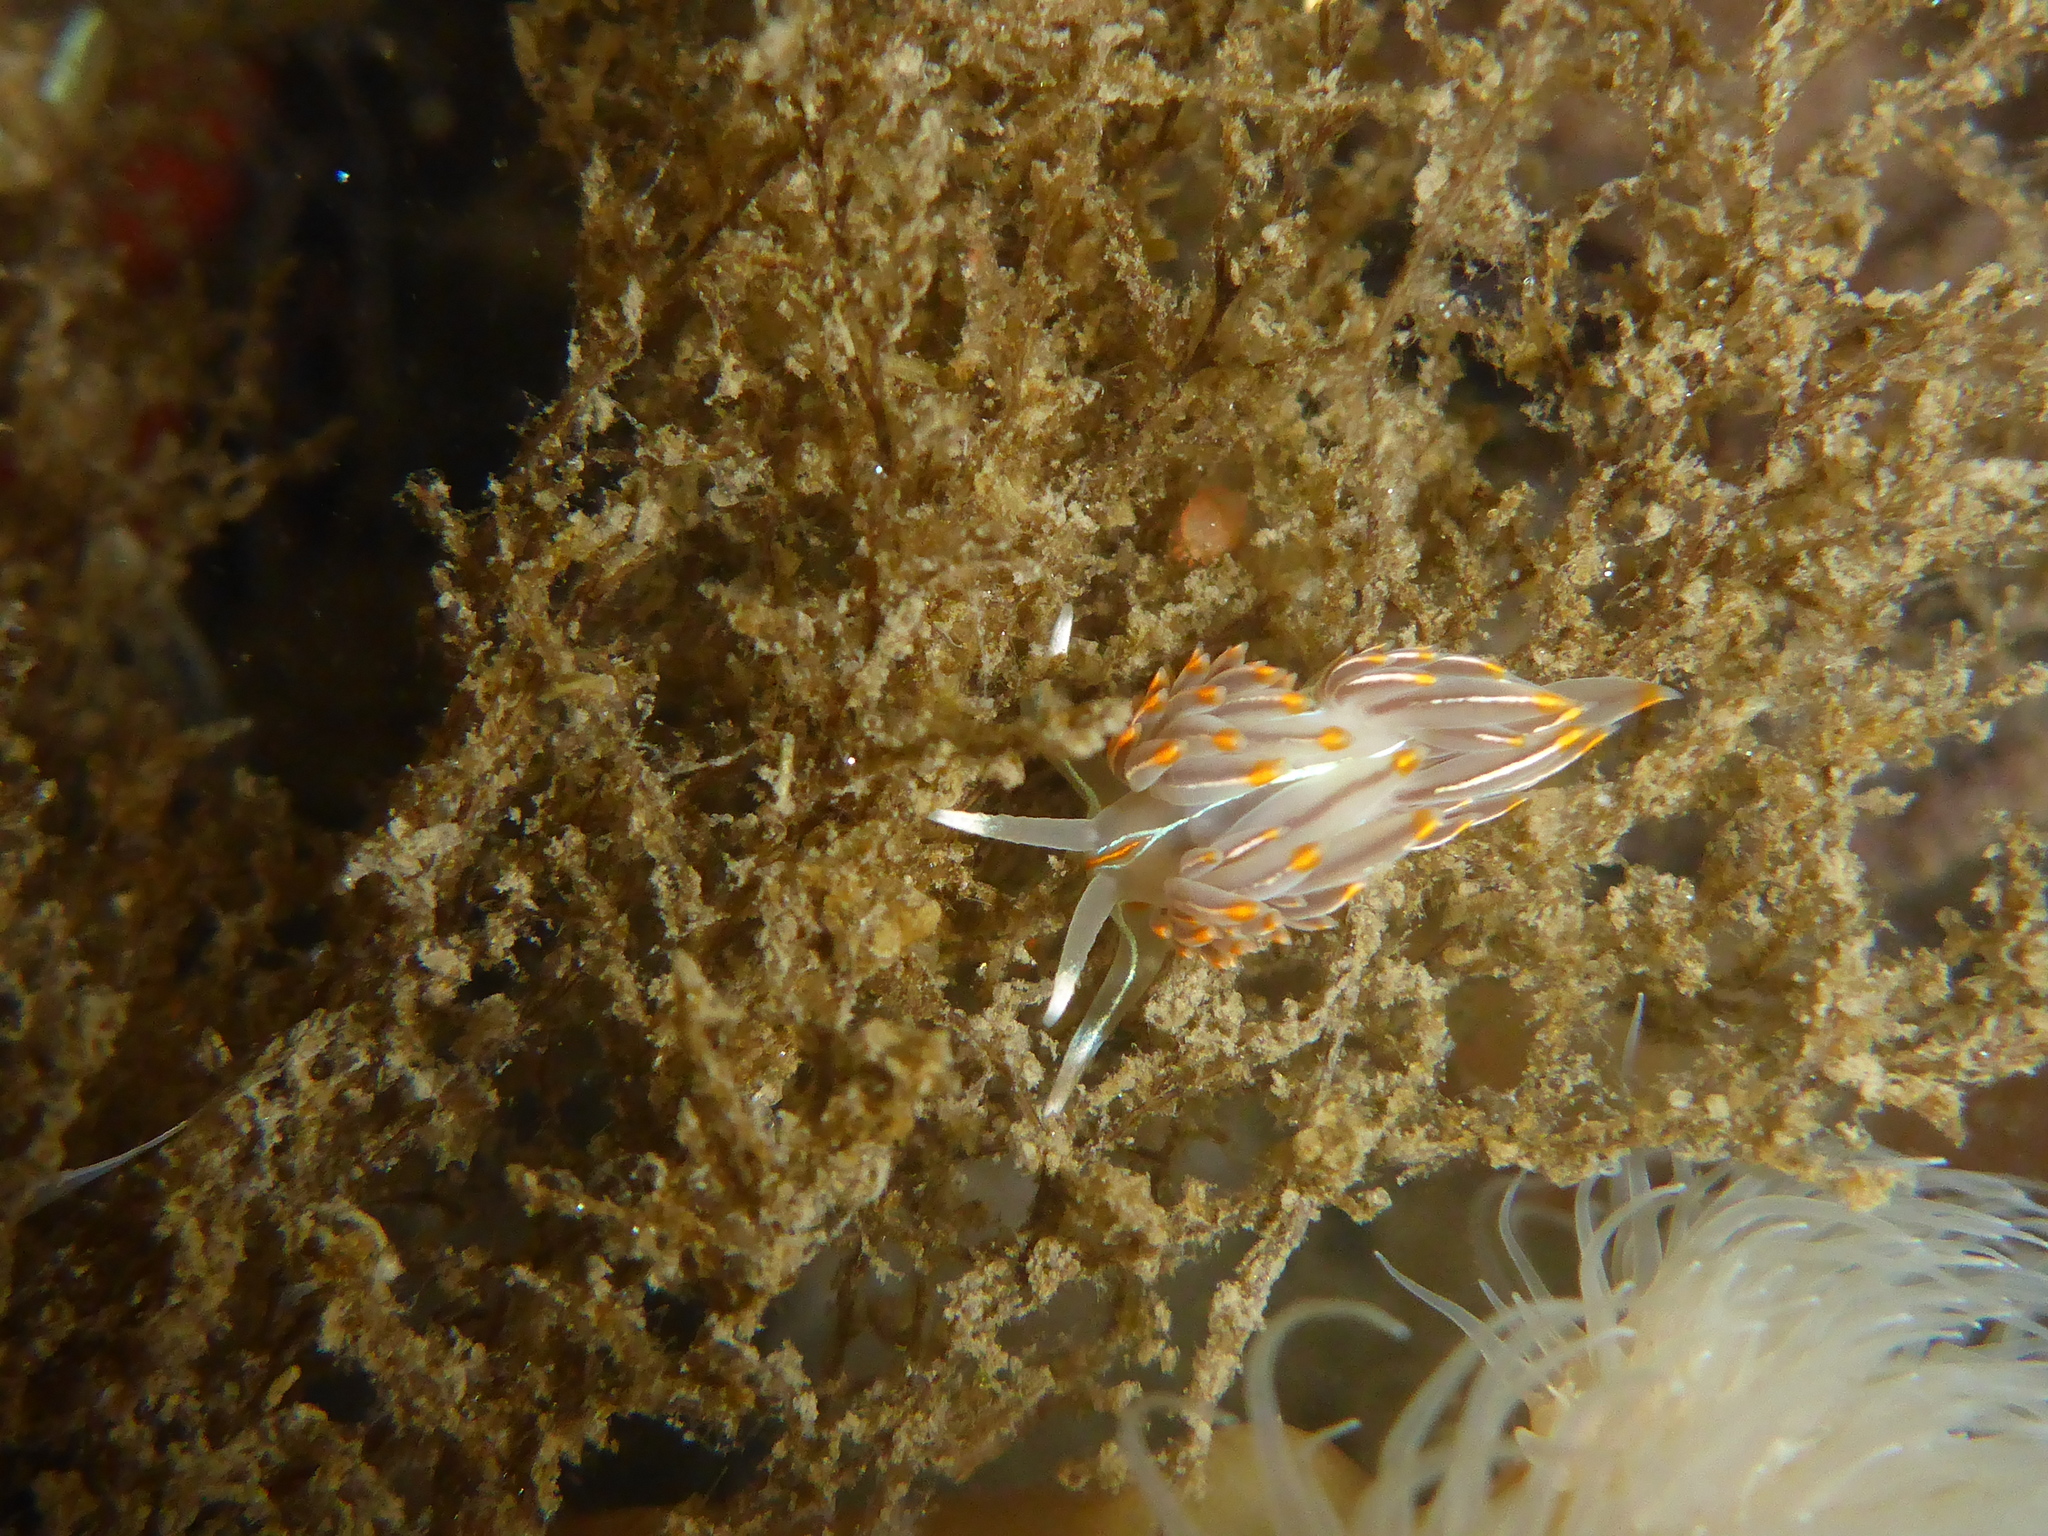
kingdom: Animalia
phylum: Mollusca
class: Gastropoda
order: Nudibranchia
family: Myrrhinidae
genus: Hermissenda
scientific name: Hermissenda crassicornis
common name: Hermissenda
